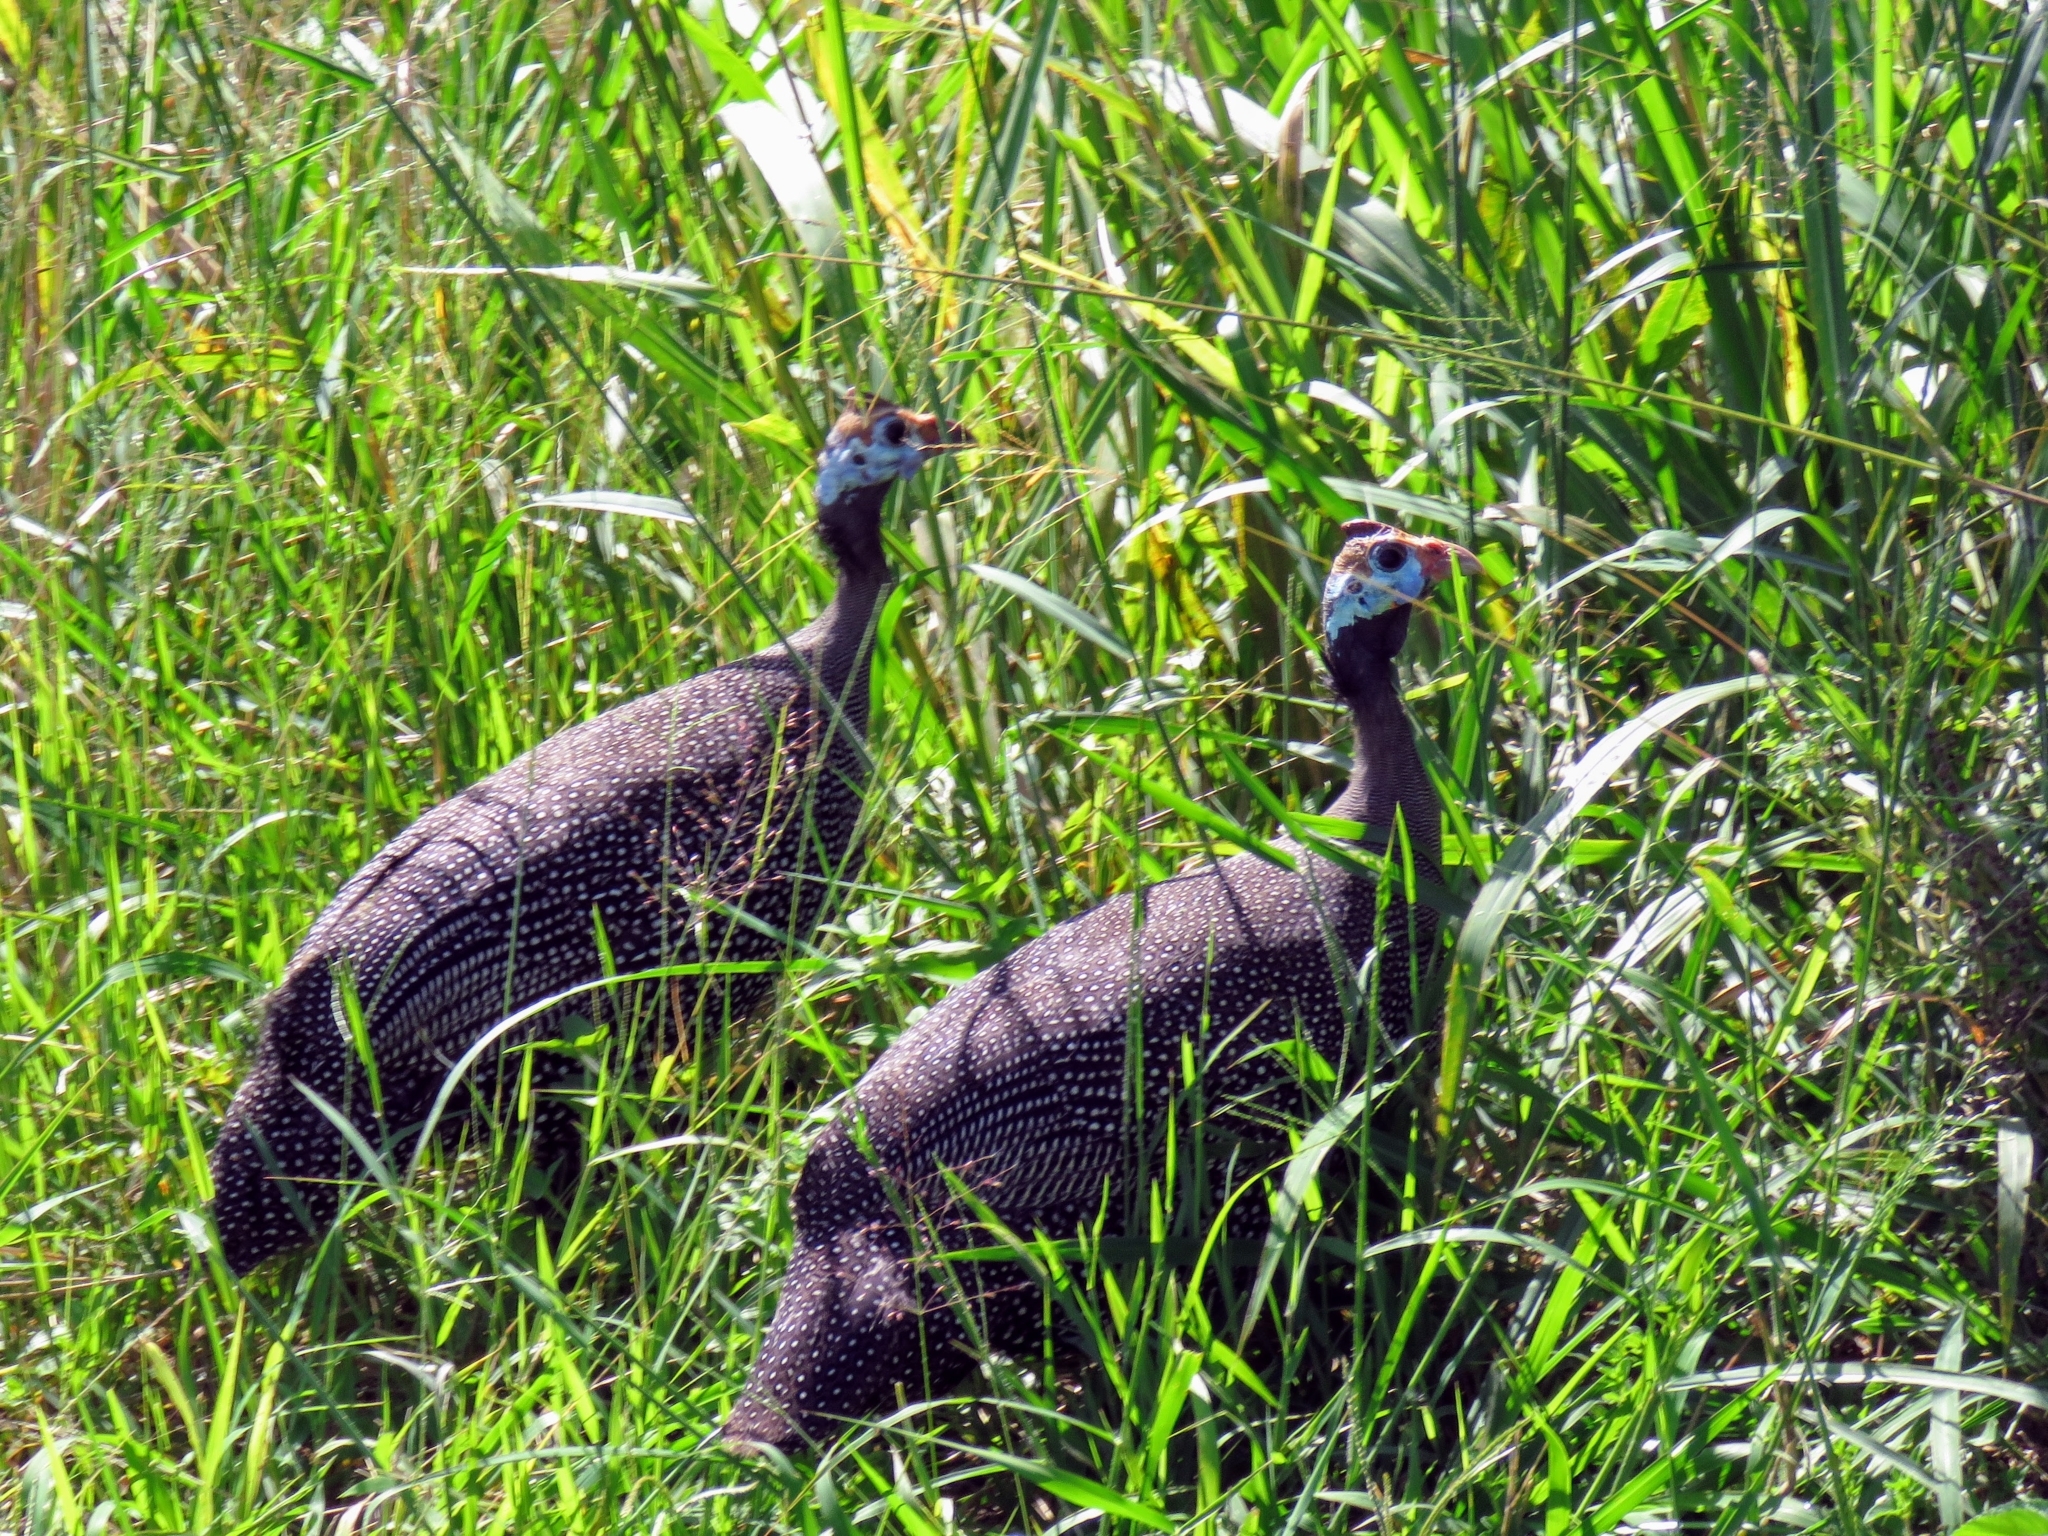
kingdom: Animalia
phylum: Chordata
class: Aves
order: Galliformes
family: Numididae
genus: Numida
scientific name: Numida meleagris
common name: Helmeted guineafowl
